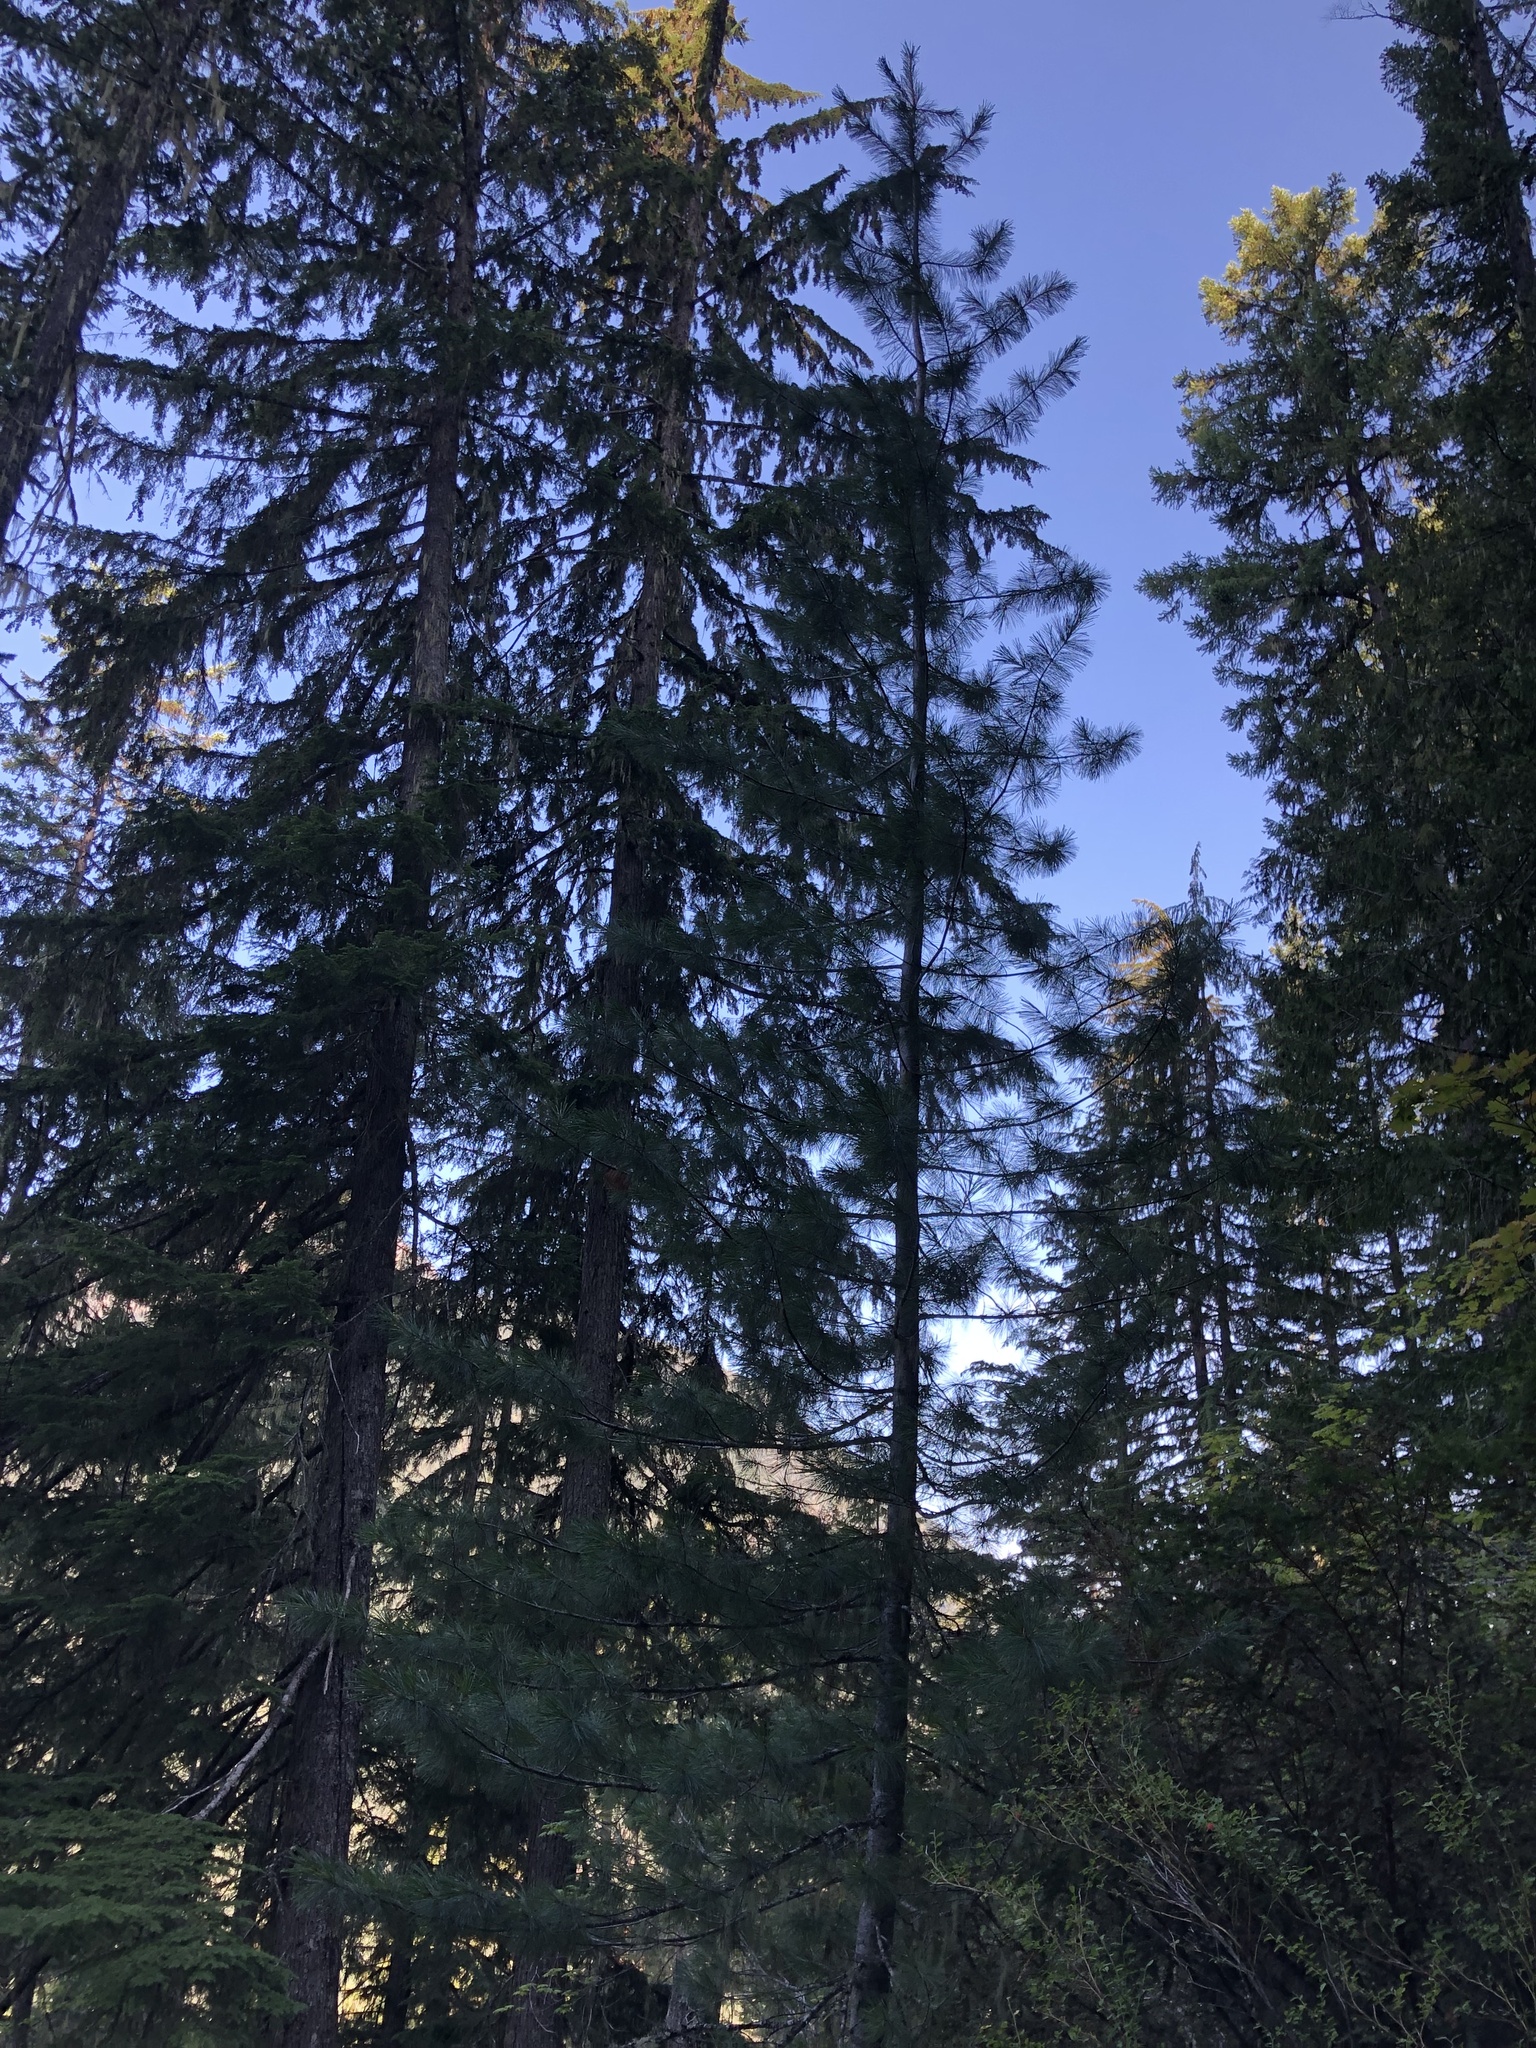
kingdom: Plantae
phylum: Tracheophyta
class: Pinopsida
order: Pinales
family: Pinaceae
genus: Pinus
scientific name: Pinus monticola
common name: Western white pine
